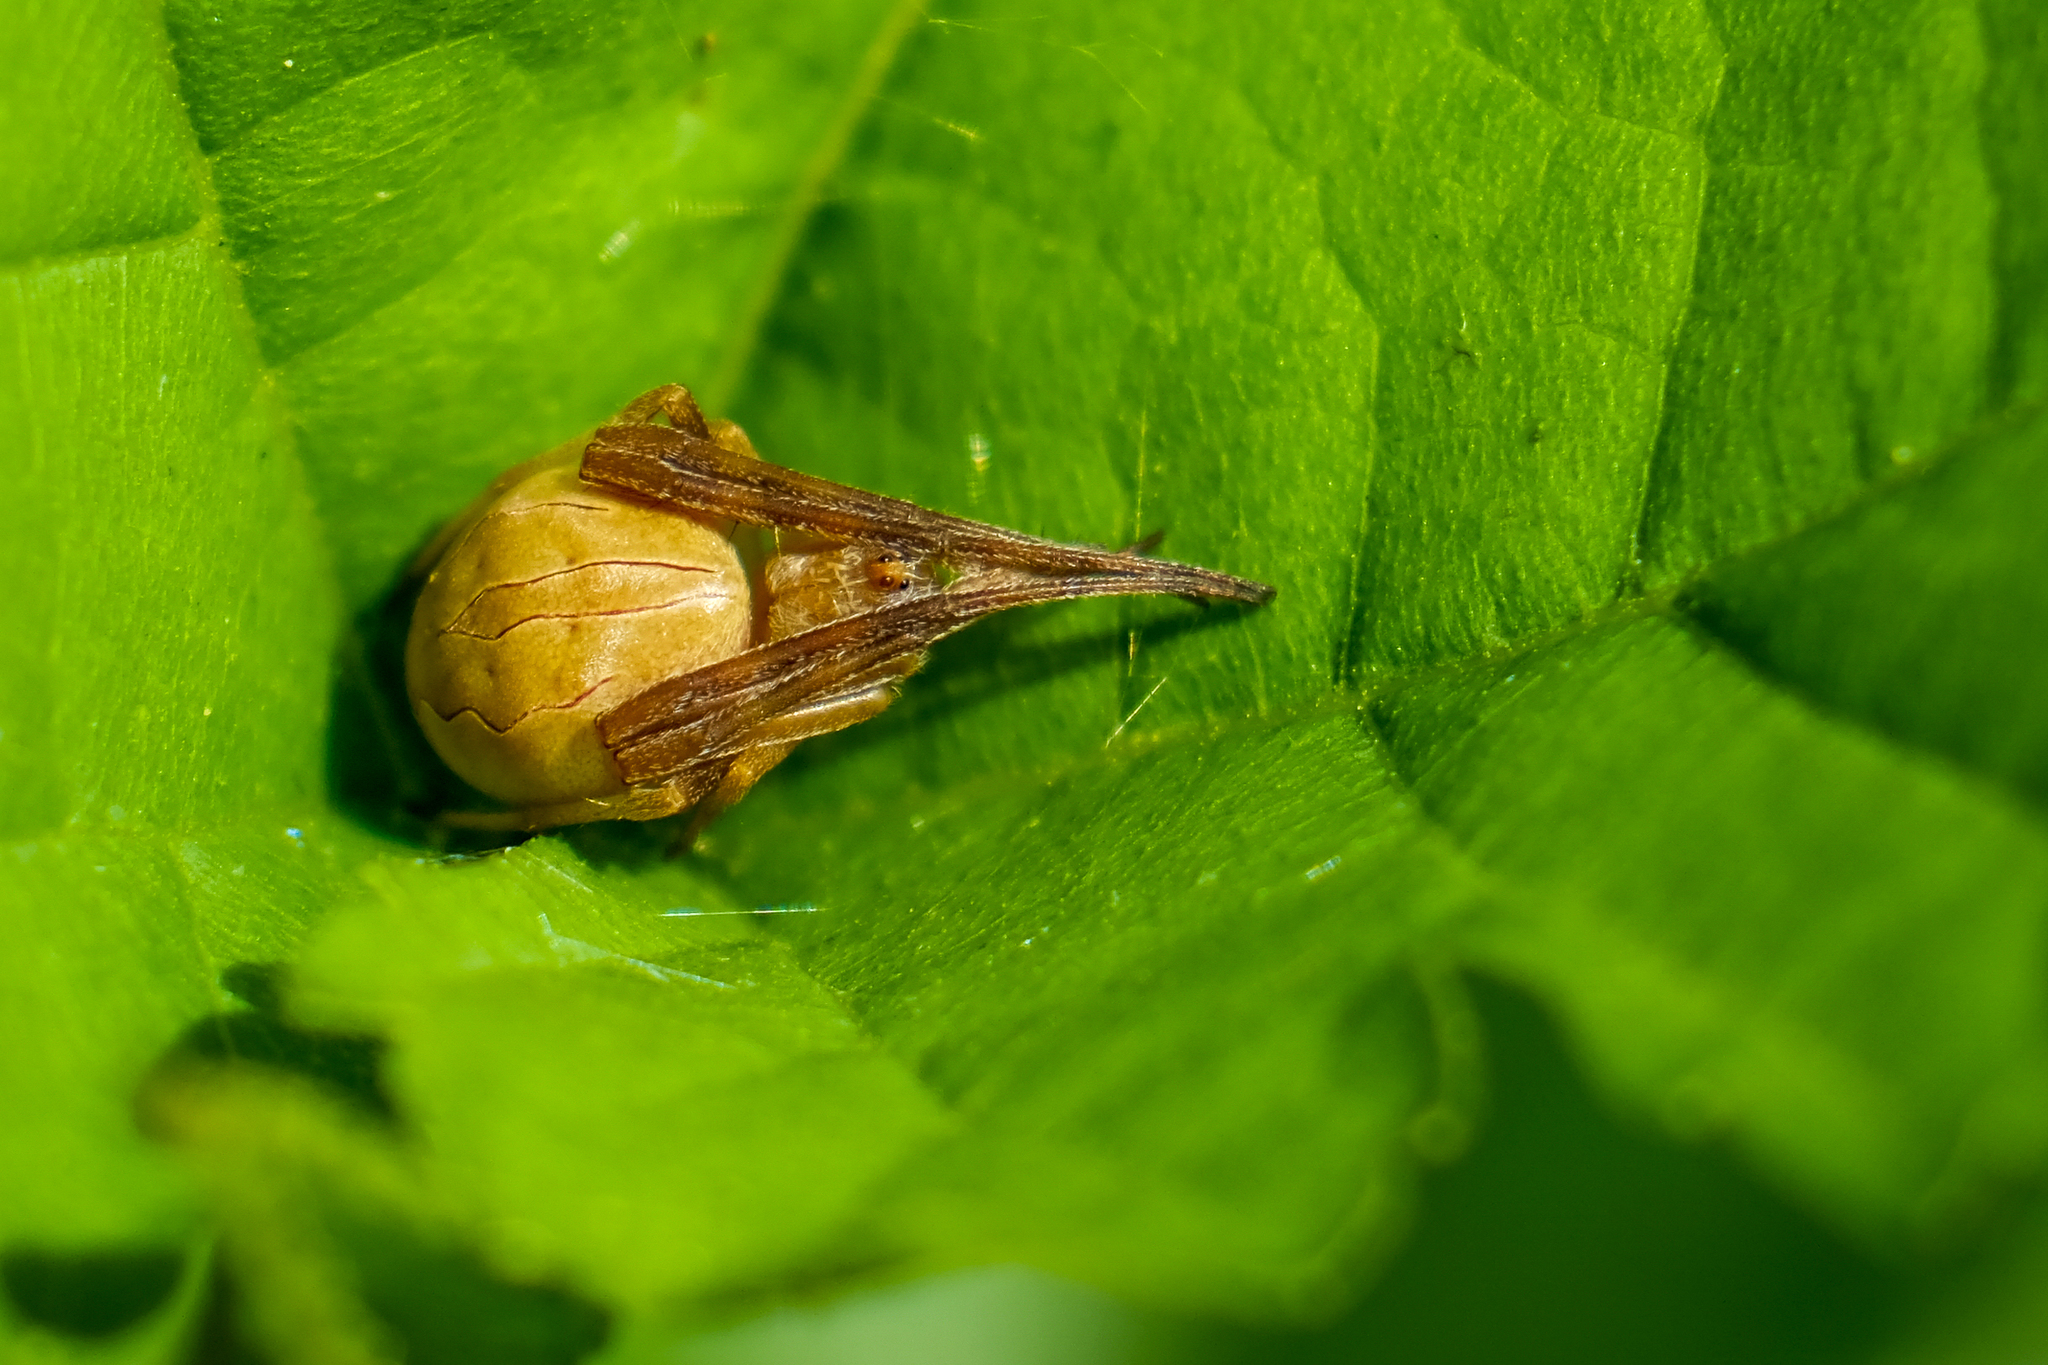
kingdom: Animalia
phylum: Arthropoda
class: Arachnida
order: Araneae
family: Araneidae
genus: Acacesia
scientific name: Acacesia hamata
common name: Orb weavers
